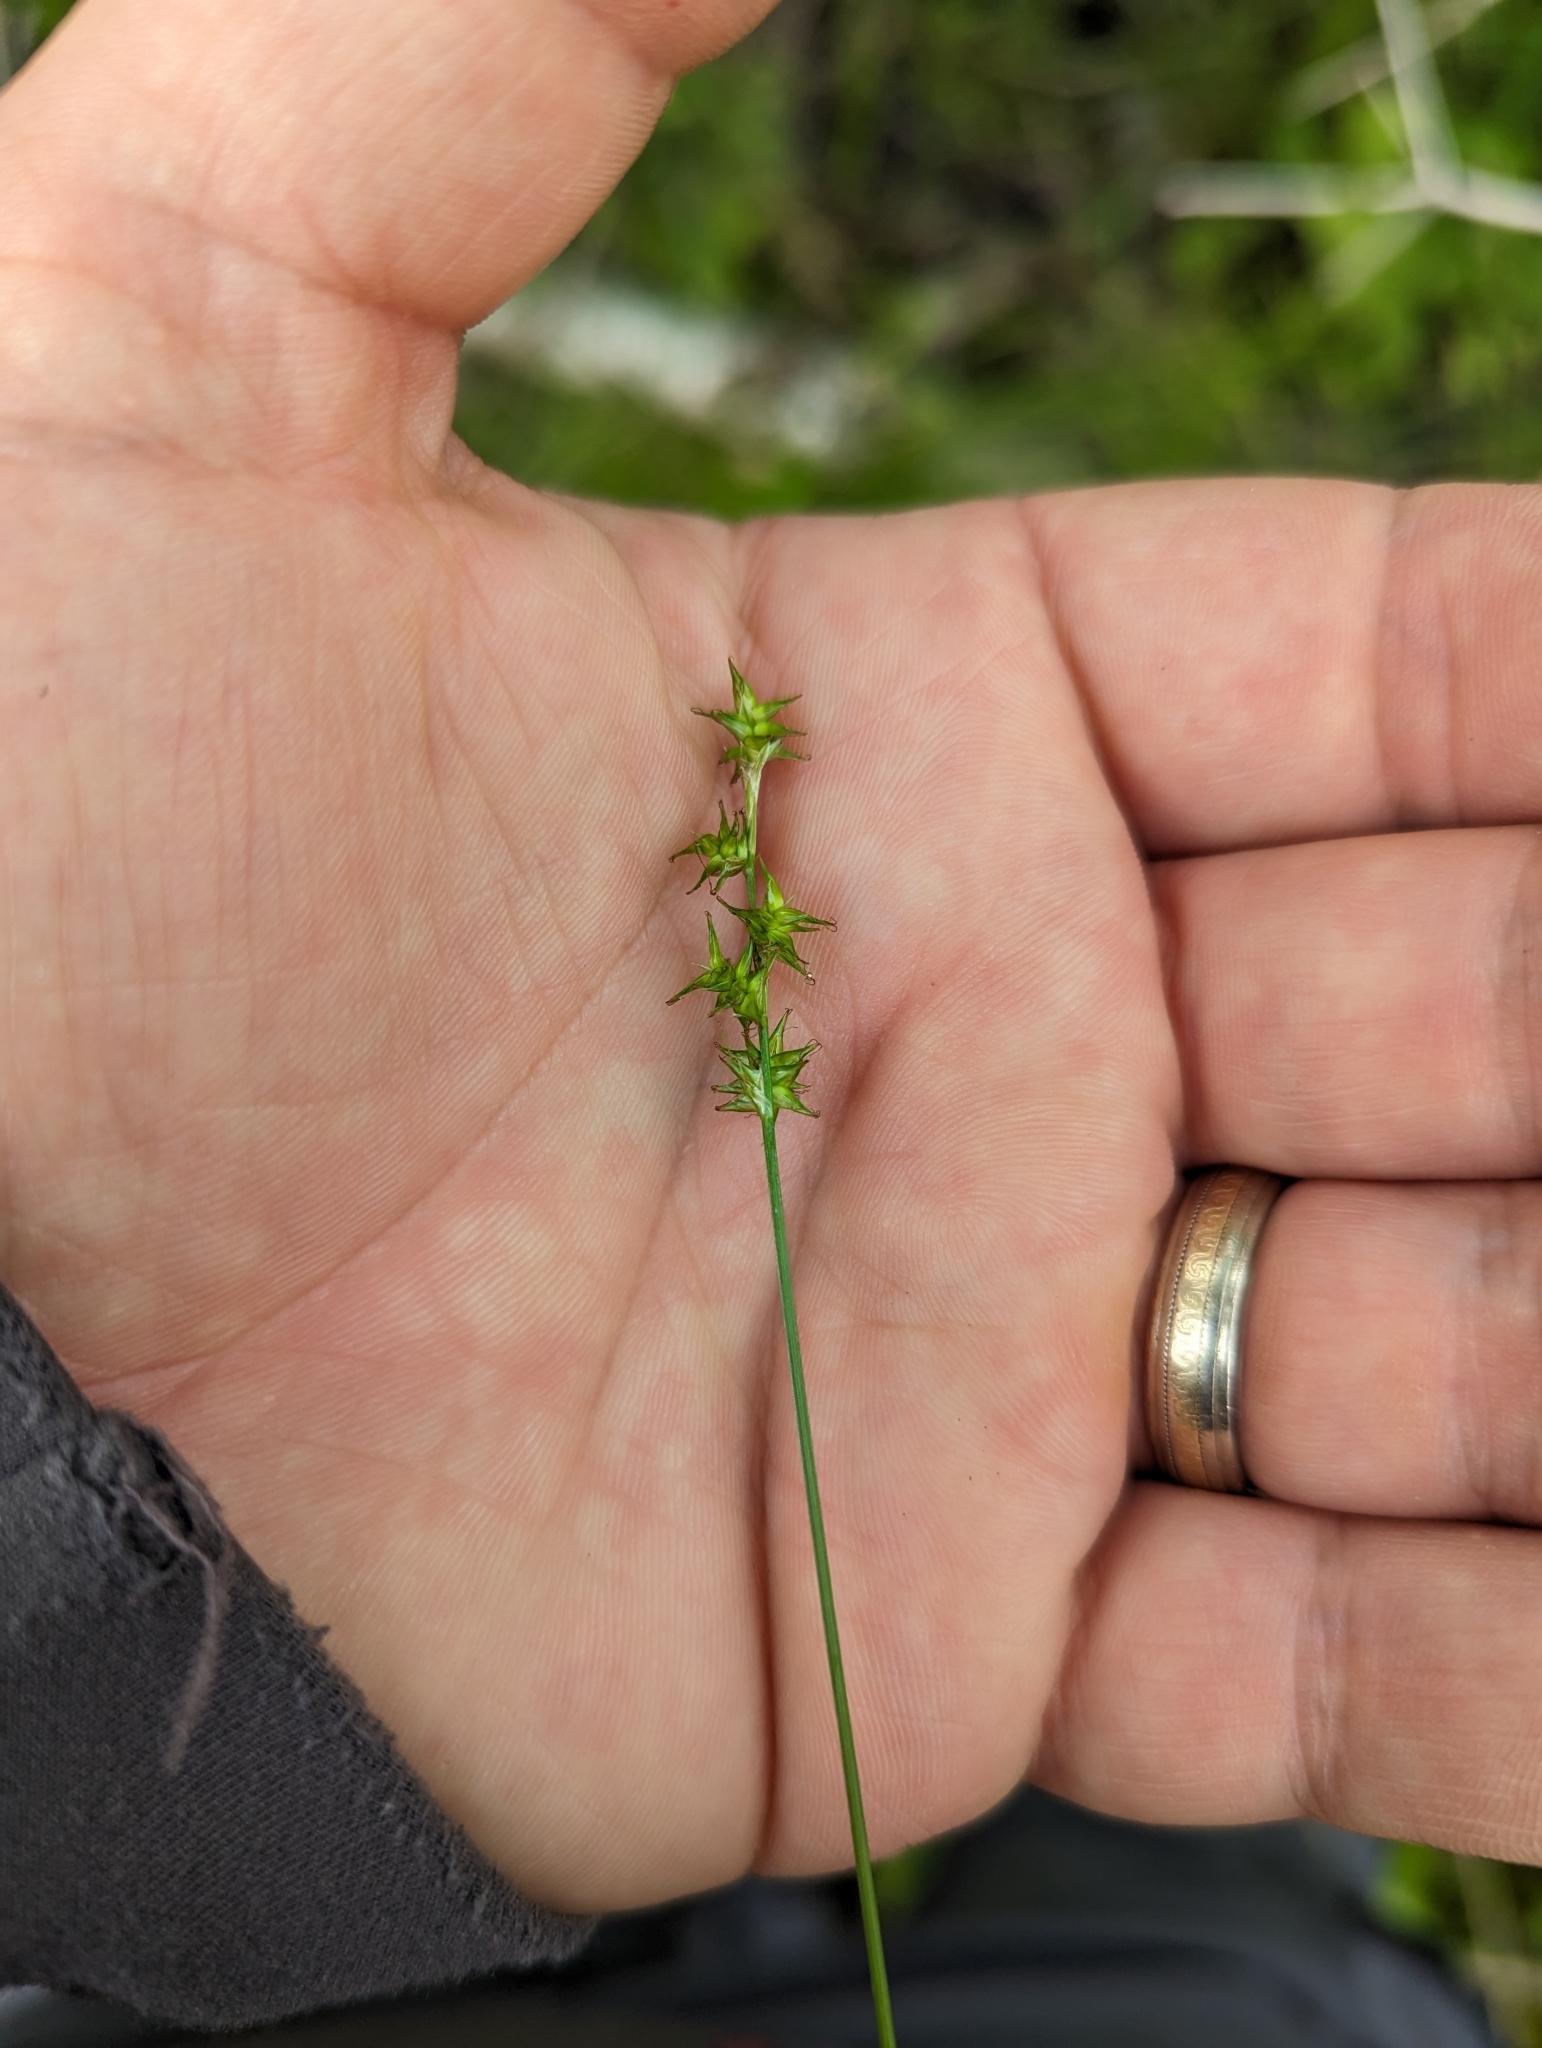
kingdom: Plantae
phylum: Tracheophyta
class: Liliopsida
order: Poales
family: Cyperaceae
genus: Carex
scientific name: Carex echinata
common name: Star sedge
